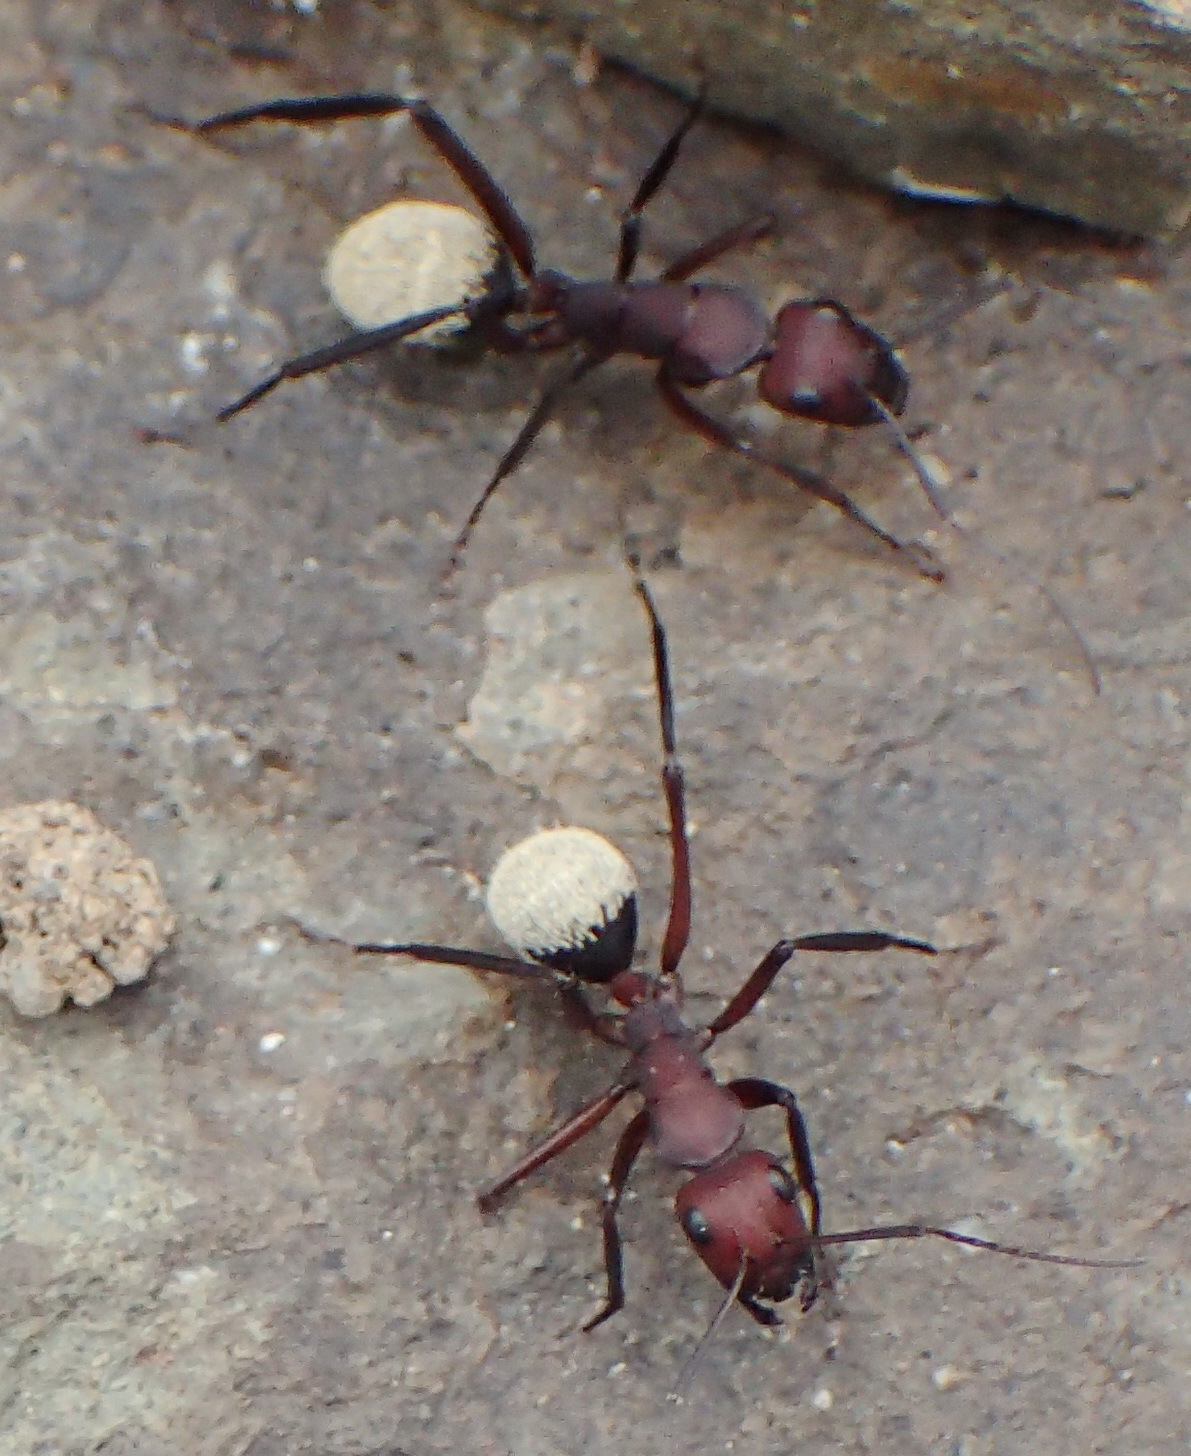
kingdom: Animalia
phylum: Arthropoda
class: Insecta
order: Hymenoptera
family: Formicidae
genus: Camponotus
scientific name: Camponotus storeatus
